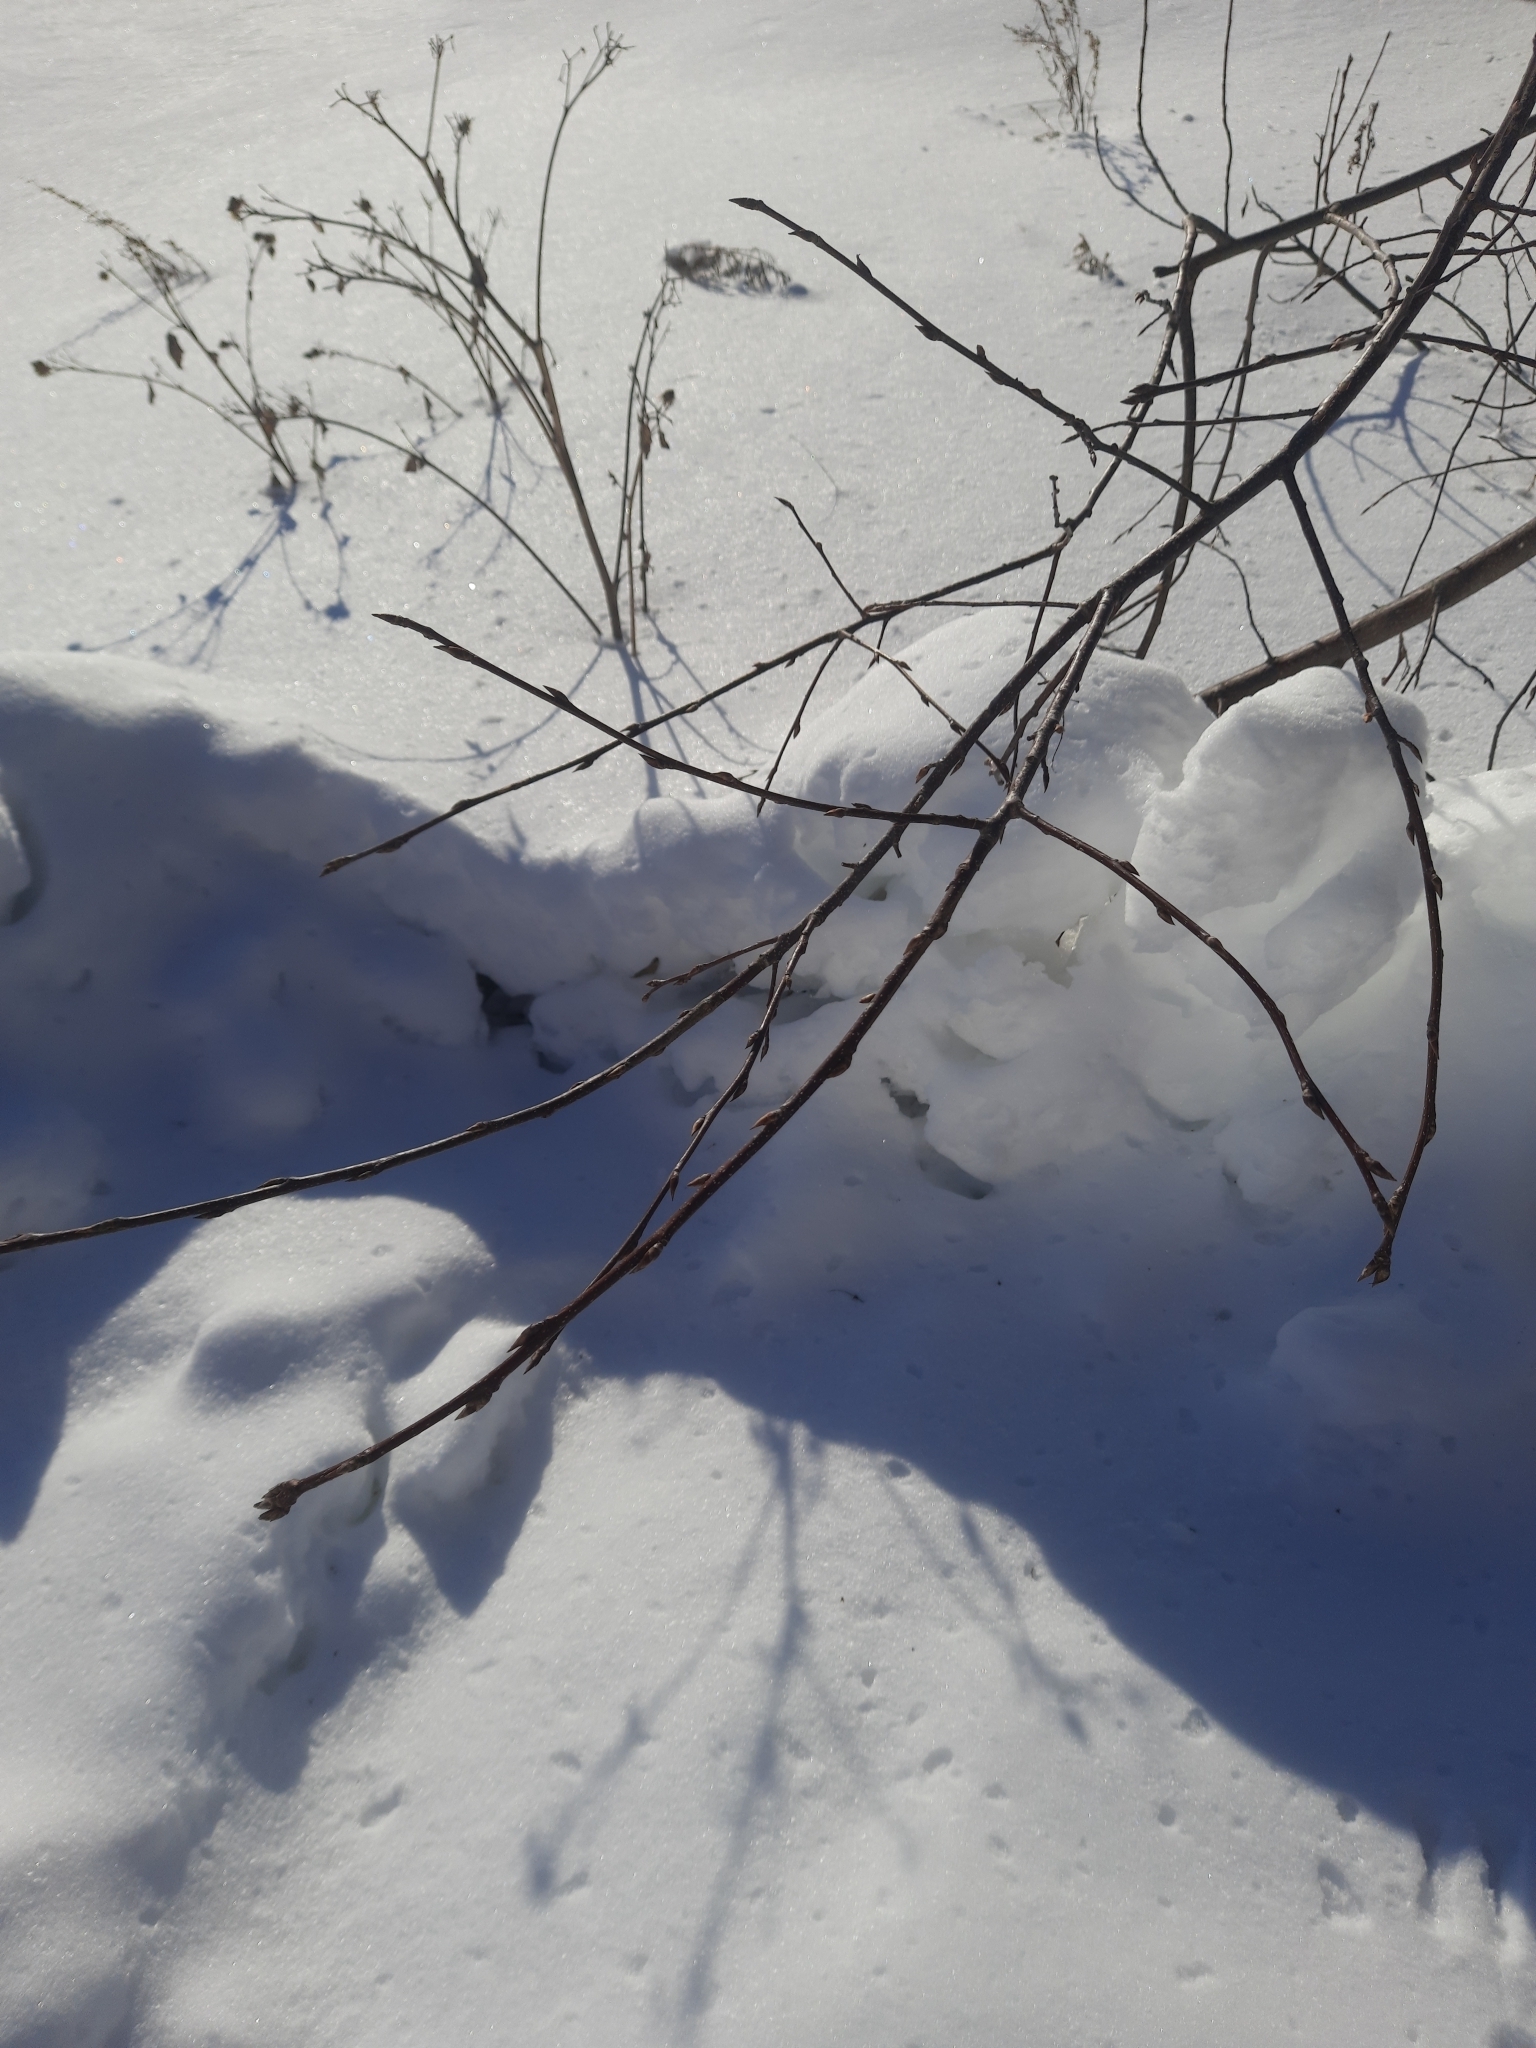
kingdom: Plantae
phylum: Tracheophyta
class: Magnoliopsida
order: Rosales
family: Rosaceae
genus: Prunus
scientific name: Prunus padus
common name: Bird cherry
